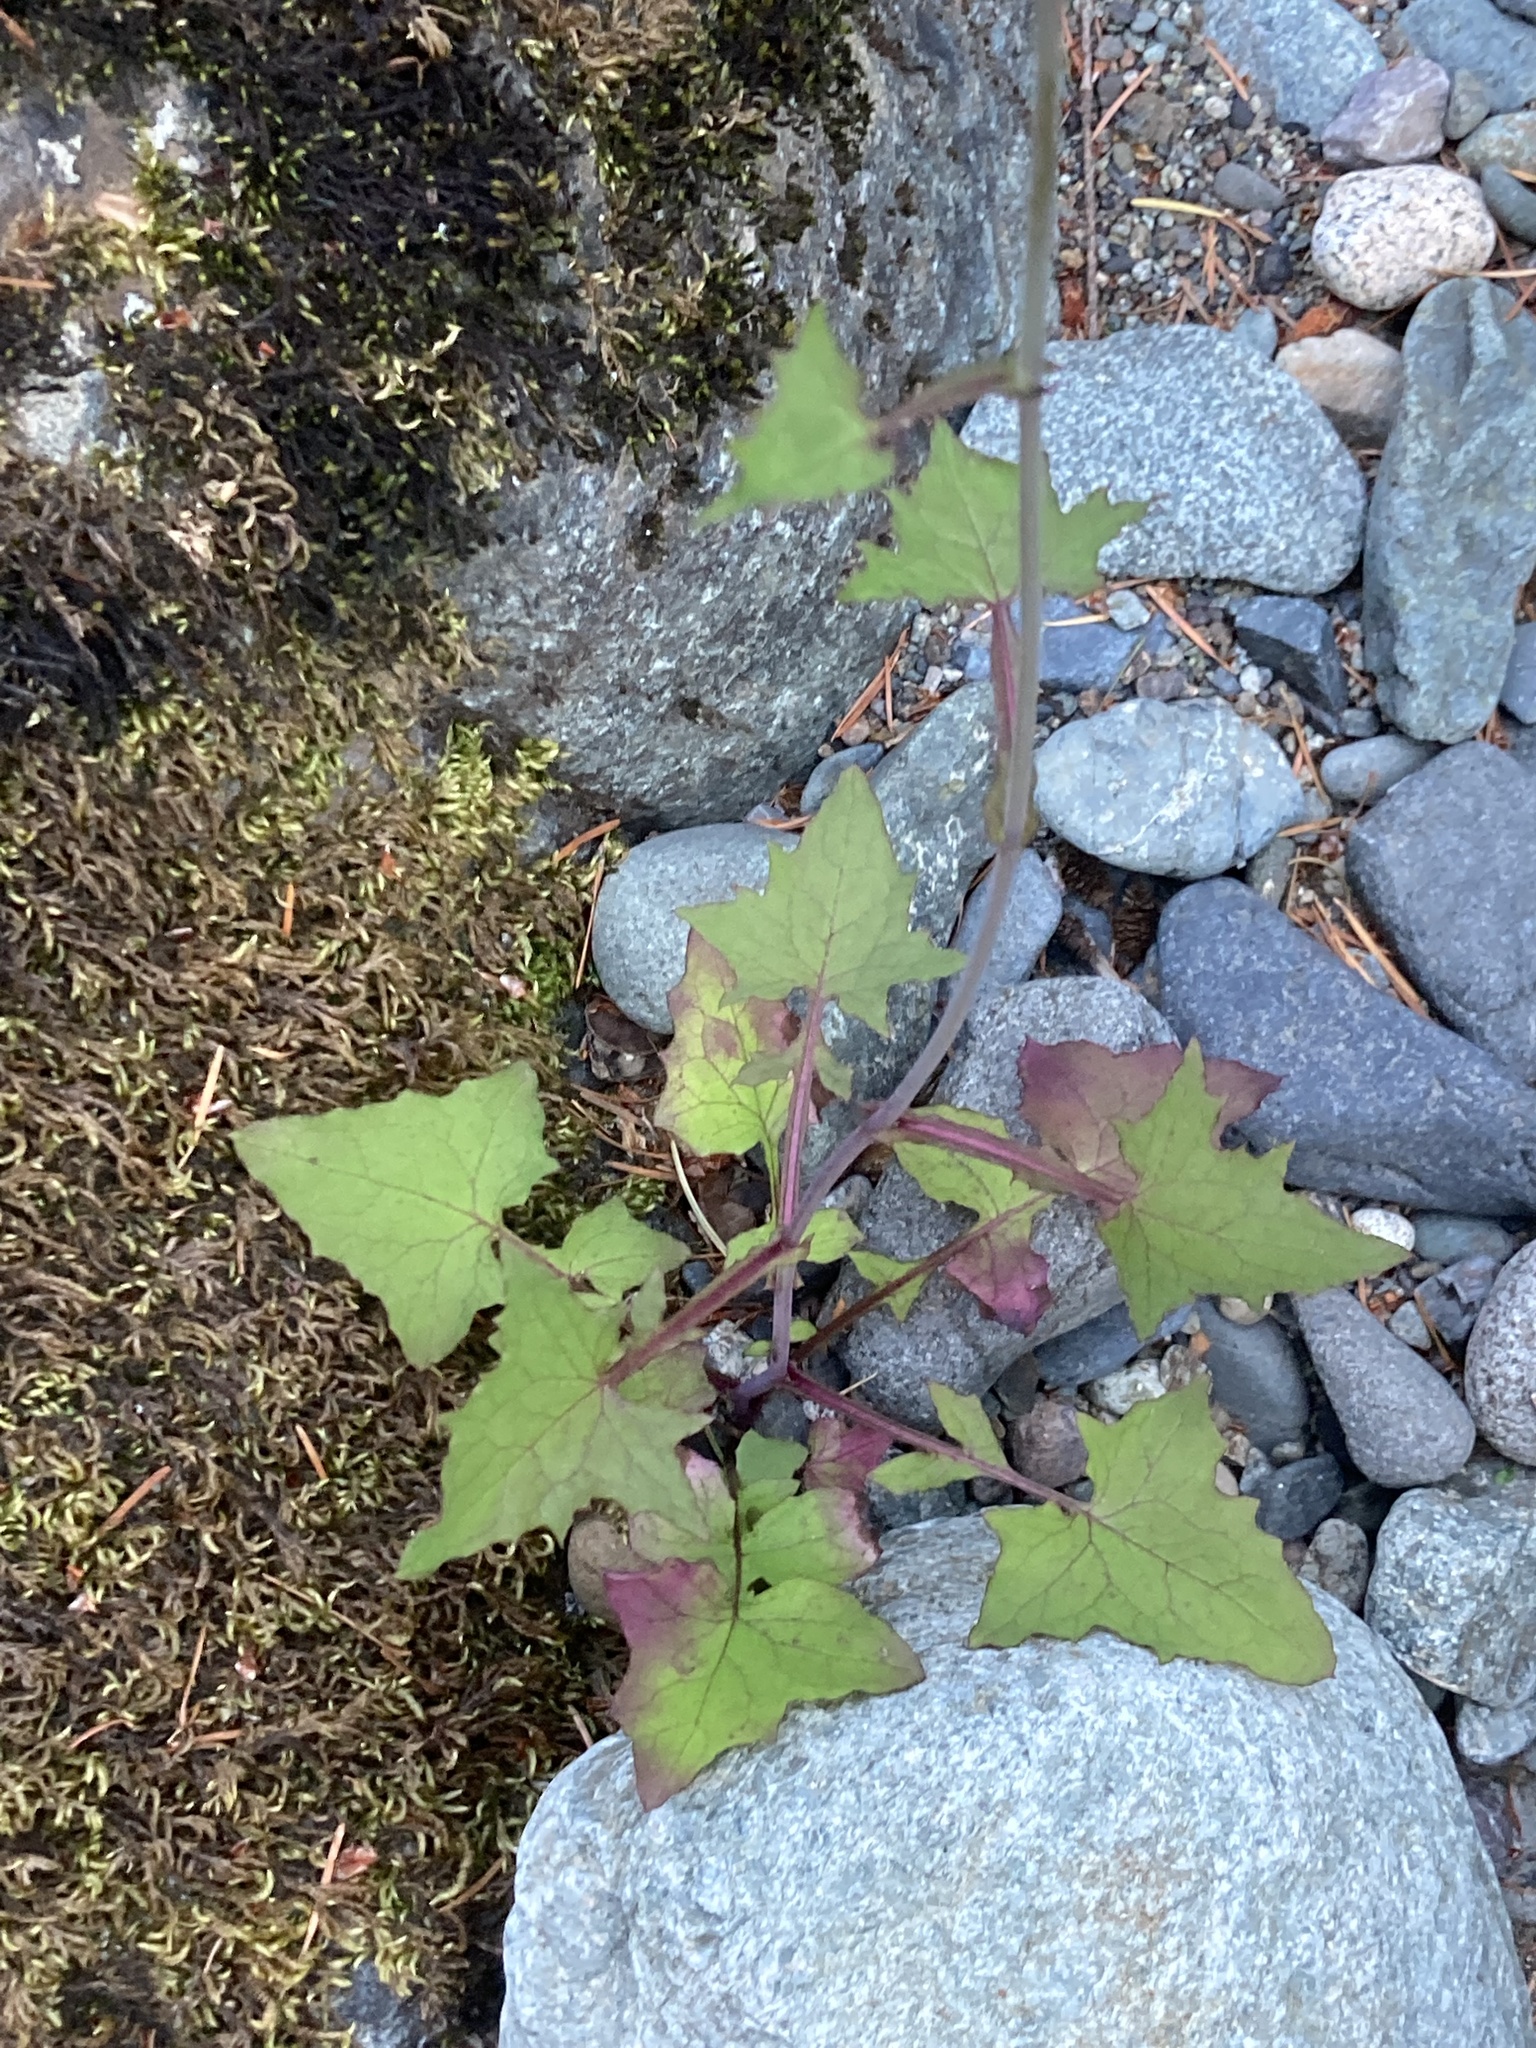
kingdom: Plantae
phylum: Tracheophyta
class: Magnoliopsida
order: Asterales
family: Asteraceae
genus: Mycelis
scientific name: Mycelis muralis
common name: Wall lettuce
